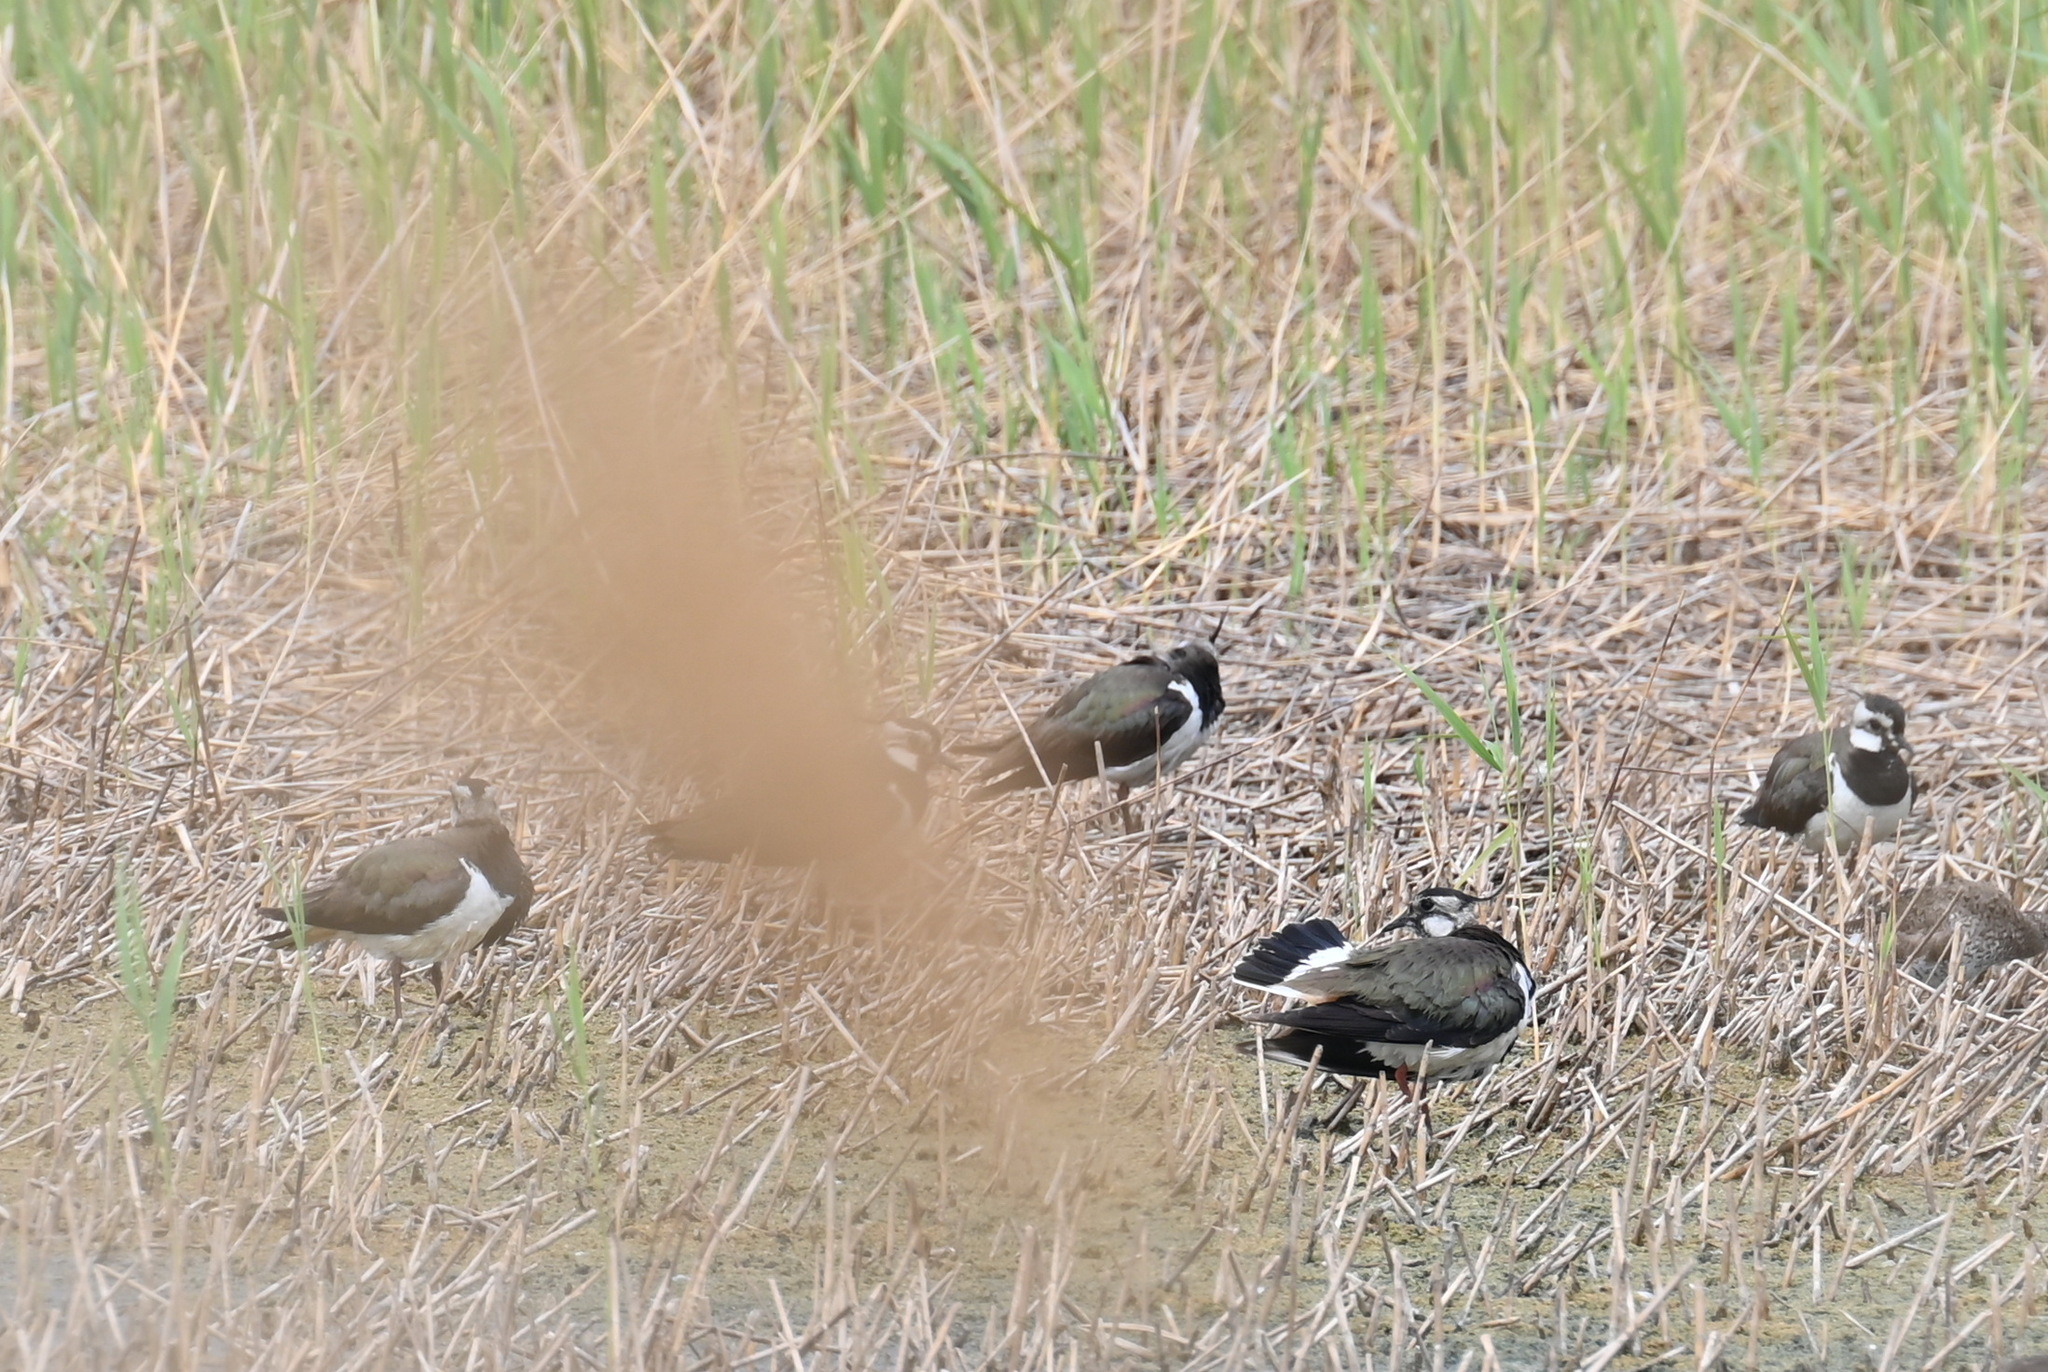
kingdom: Animalia
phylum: Chordata
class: Aves
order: Charadriiformes
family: Charadriidae
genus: Vanellus
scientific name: Vanellus vanellus
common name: Northern lapwing
